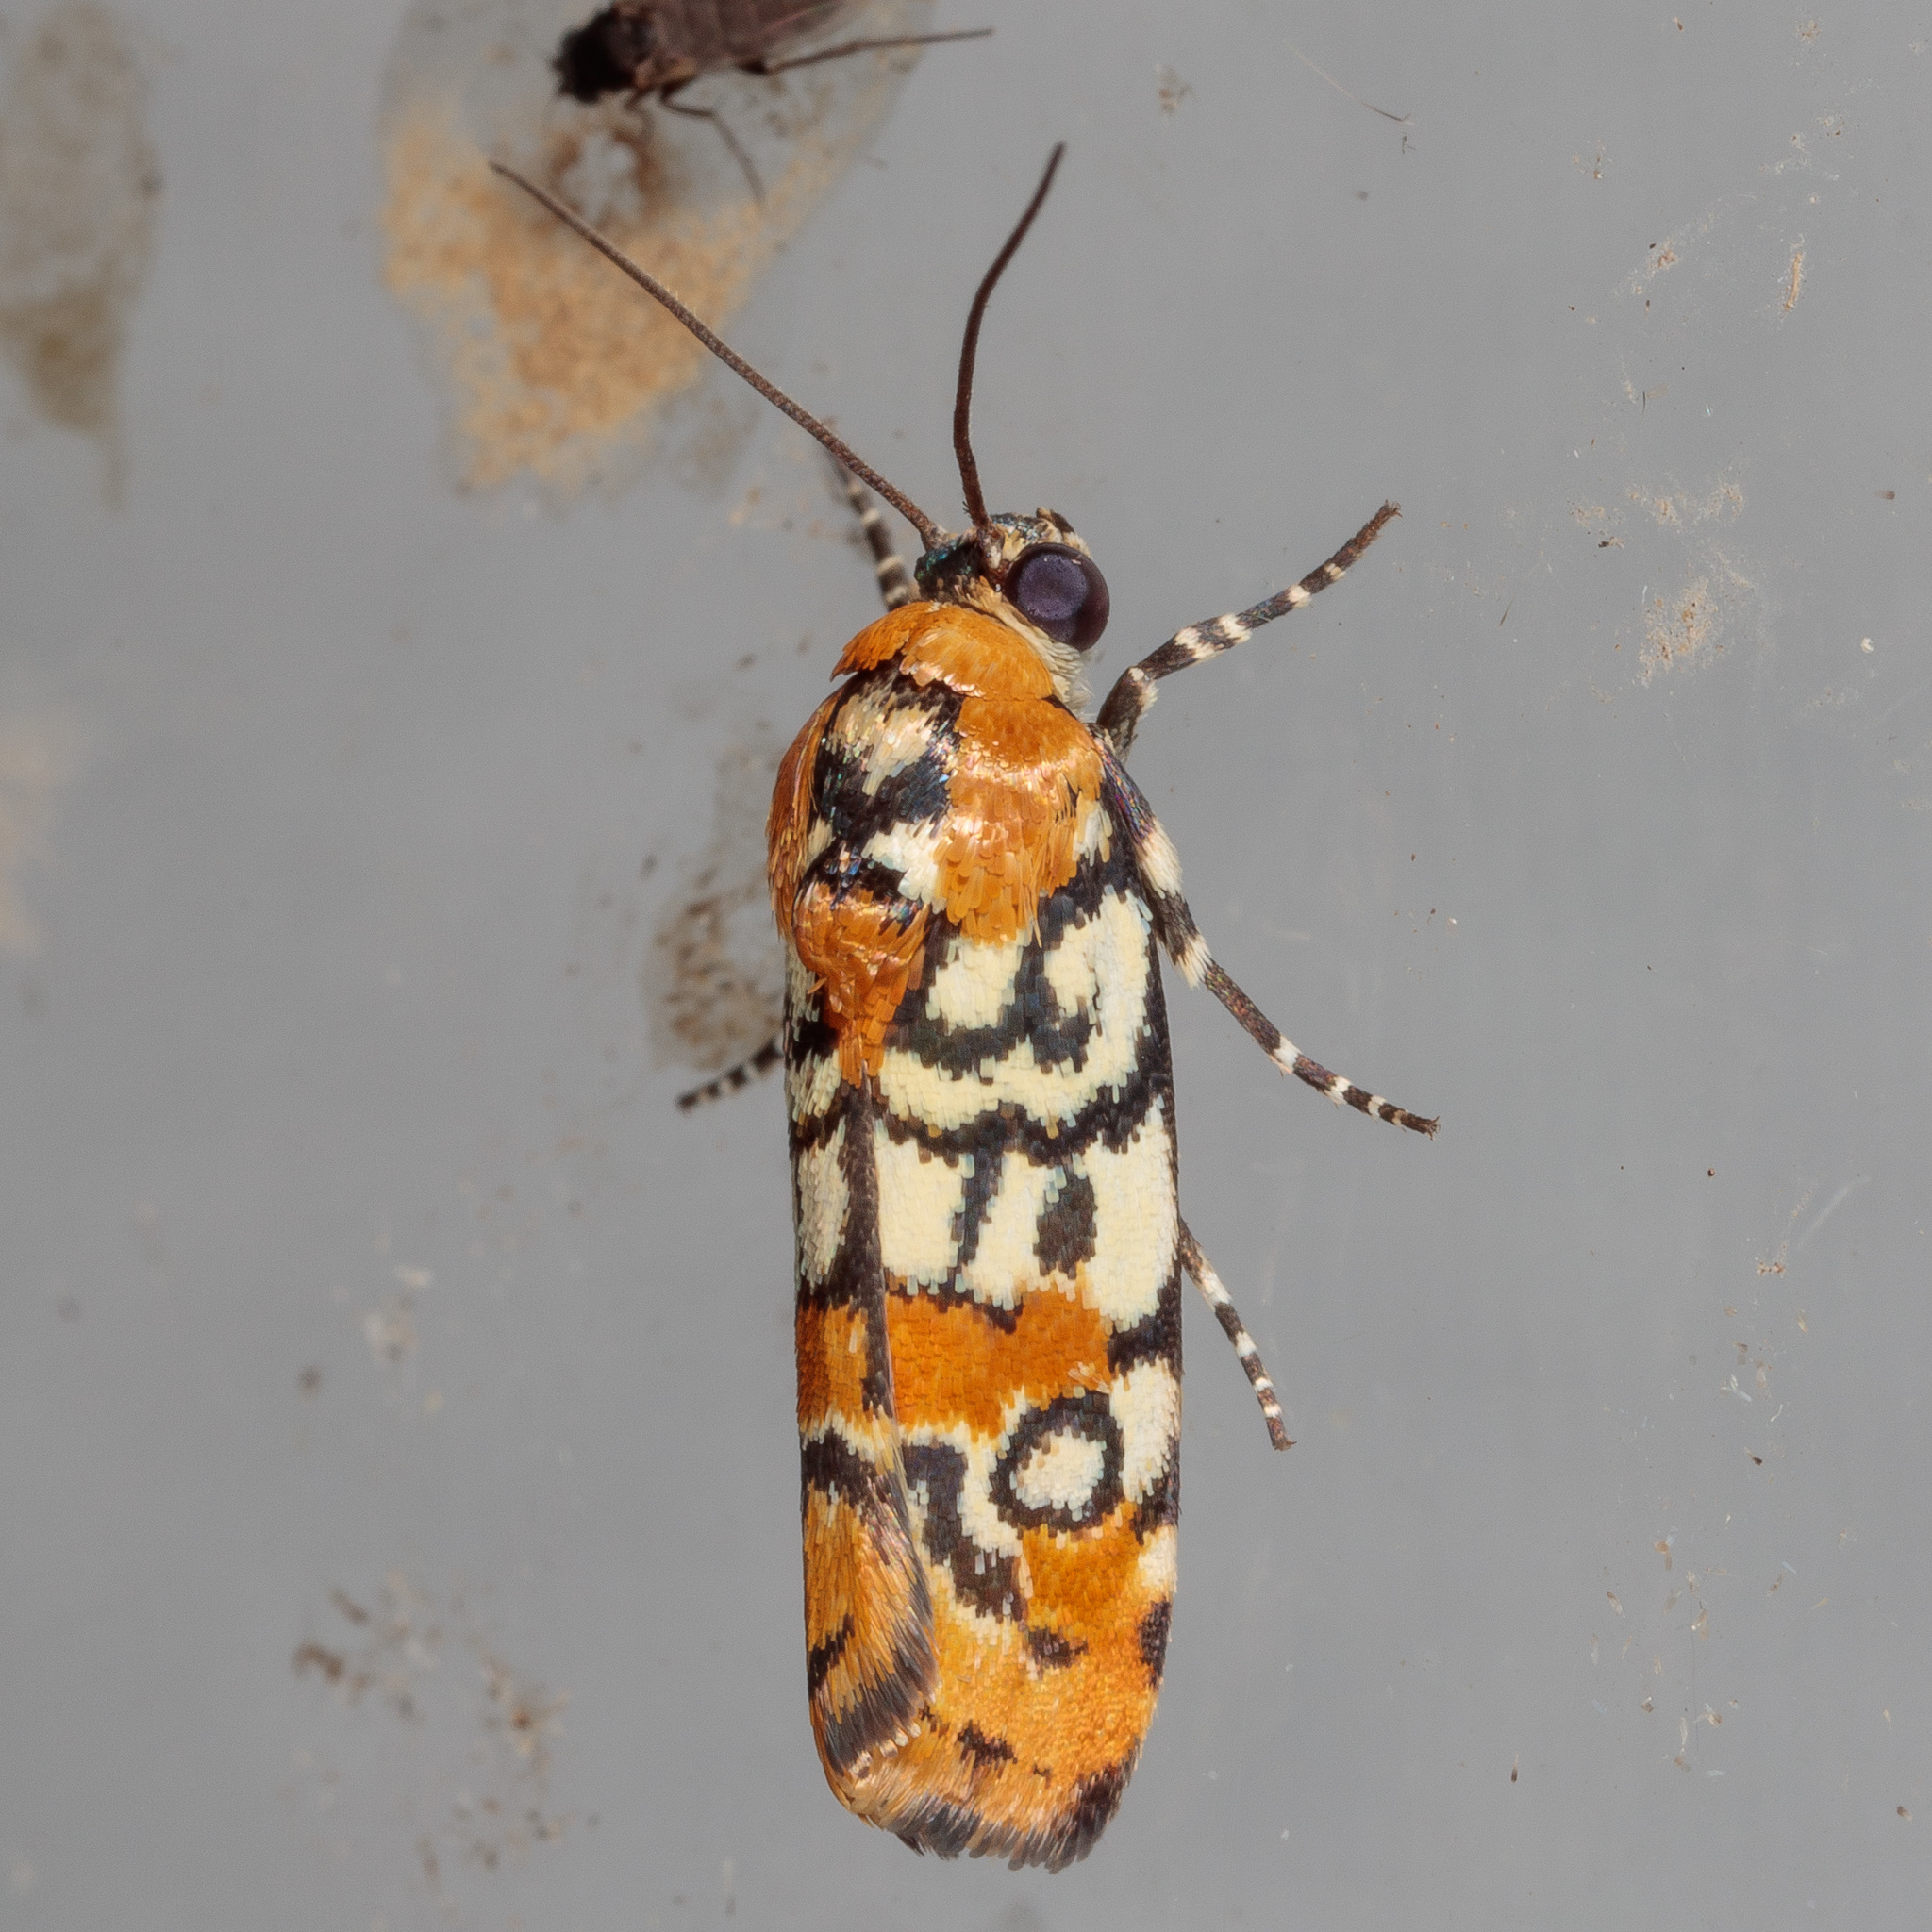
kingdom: Animalia
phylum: Arthropoda
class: Insecta
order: Lepidoptera
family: Noctuidae
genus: Spragueia
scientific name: Spragueia guttata
